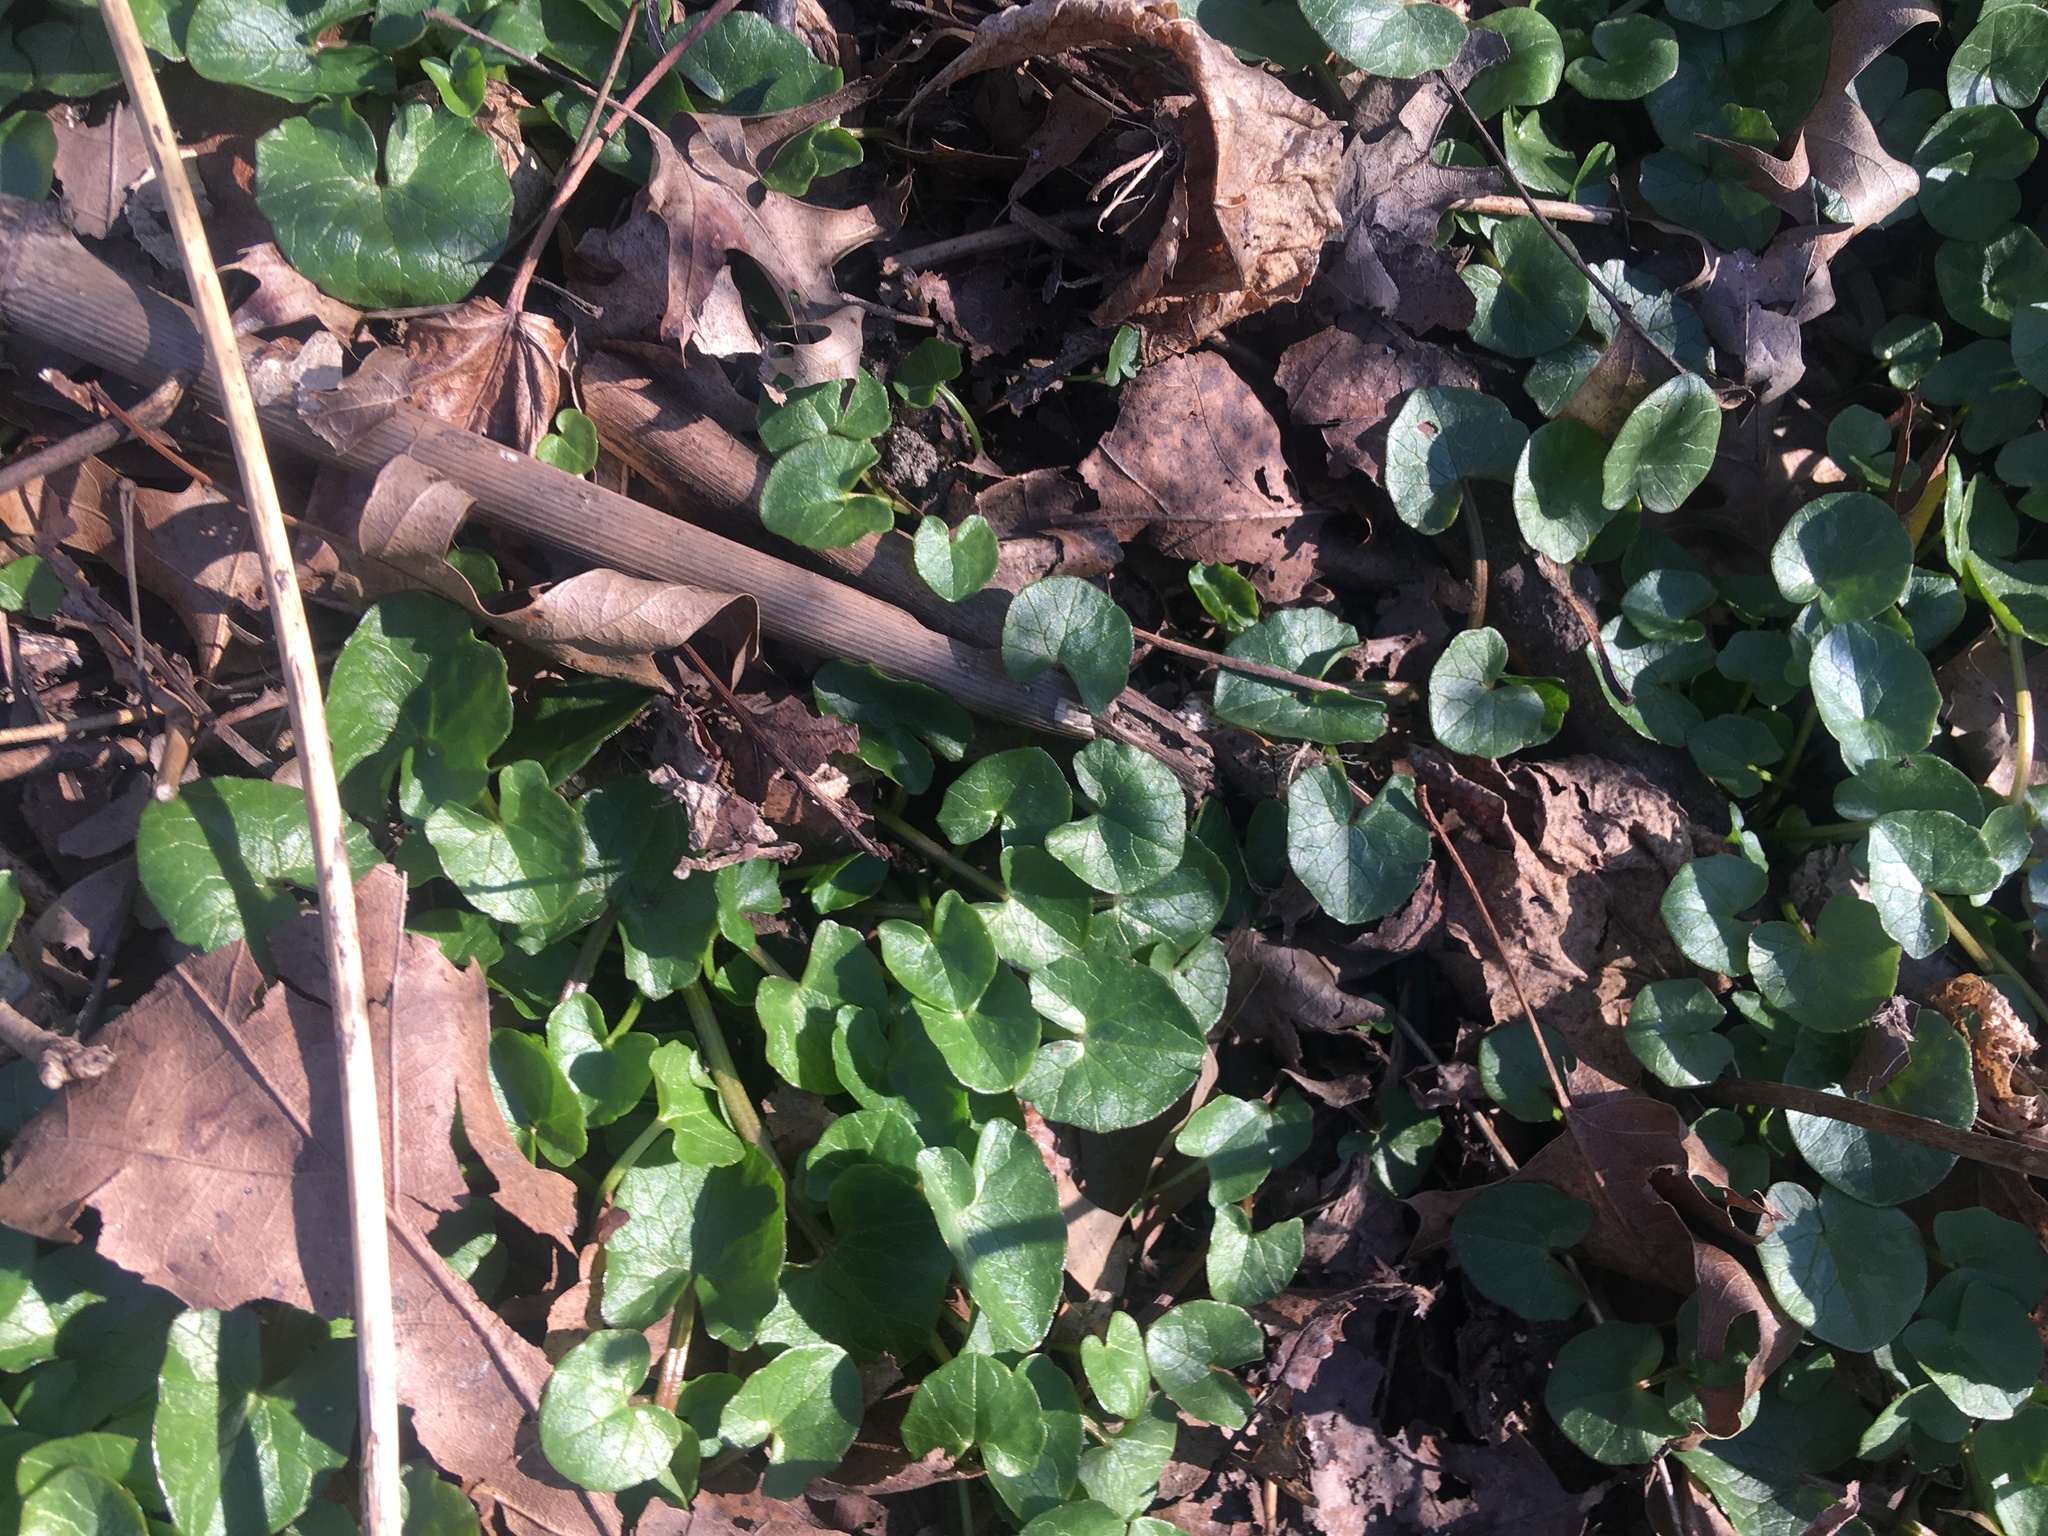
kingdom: Plantae
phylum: Tracheophyta
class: Magnoliopsida
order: Ranunculales
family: Ranunculaceae
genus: Ficaria
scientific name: Ficaria verna
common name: Lesser celandine
